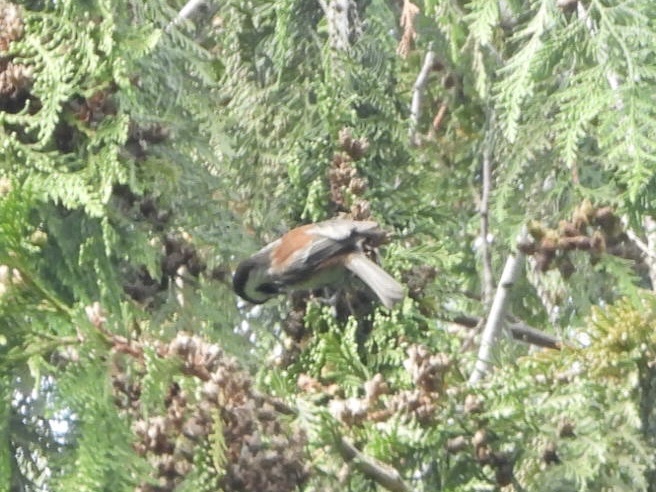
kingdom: Animalia
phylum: Chordata
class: Aves
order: Passeriformes
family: Paridae
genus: Poecile
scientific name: Poecile rufescens
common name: Chestnut-backed chickadee
